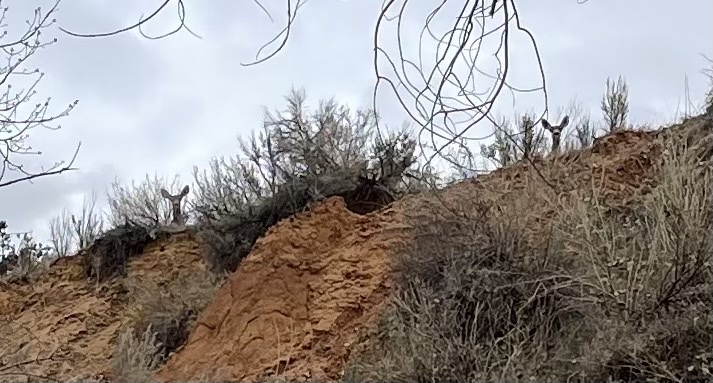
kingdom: Animalia
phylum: Chordata
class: Mammalia
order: Artiodactyla
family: Cervidae
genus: Odocoileus
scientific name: Odocoileus hemionus
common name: Mule deer
